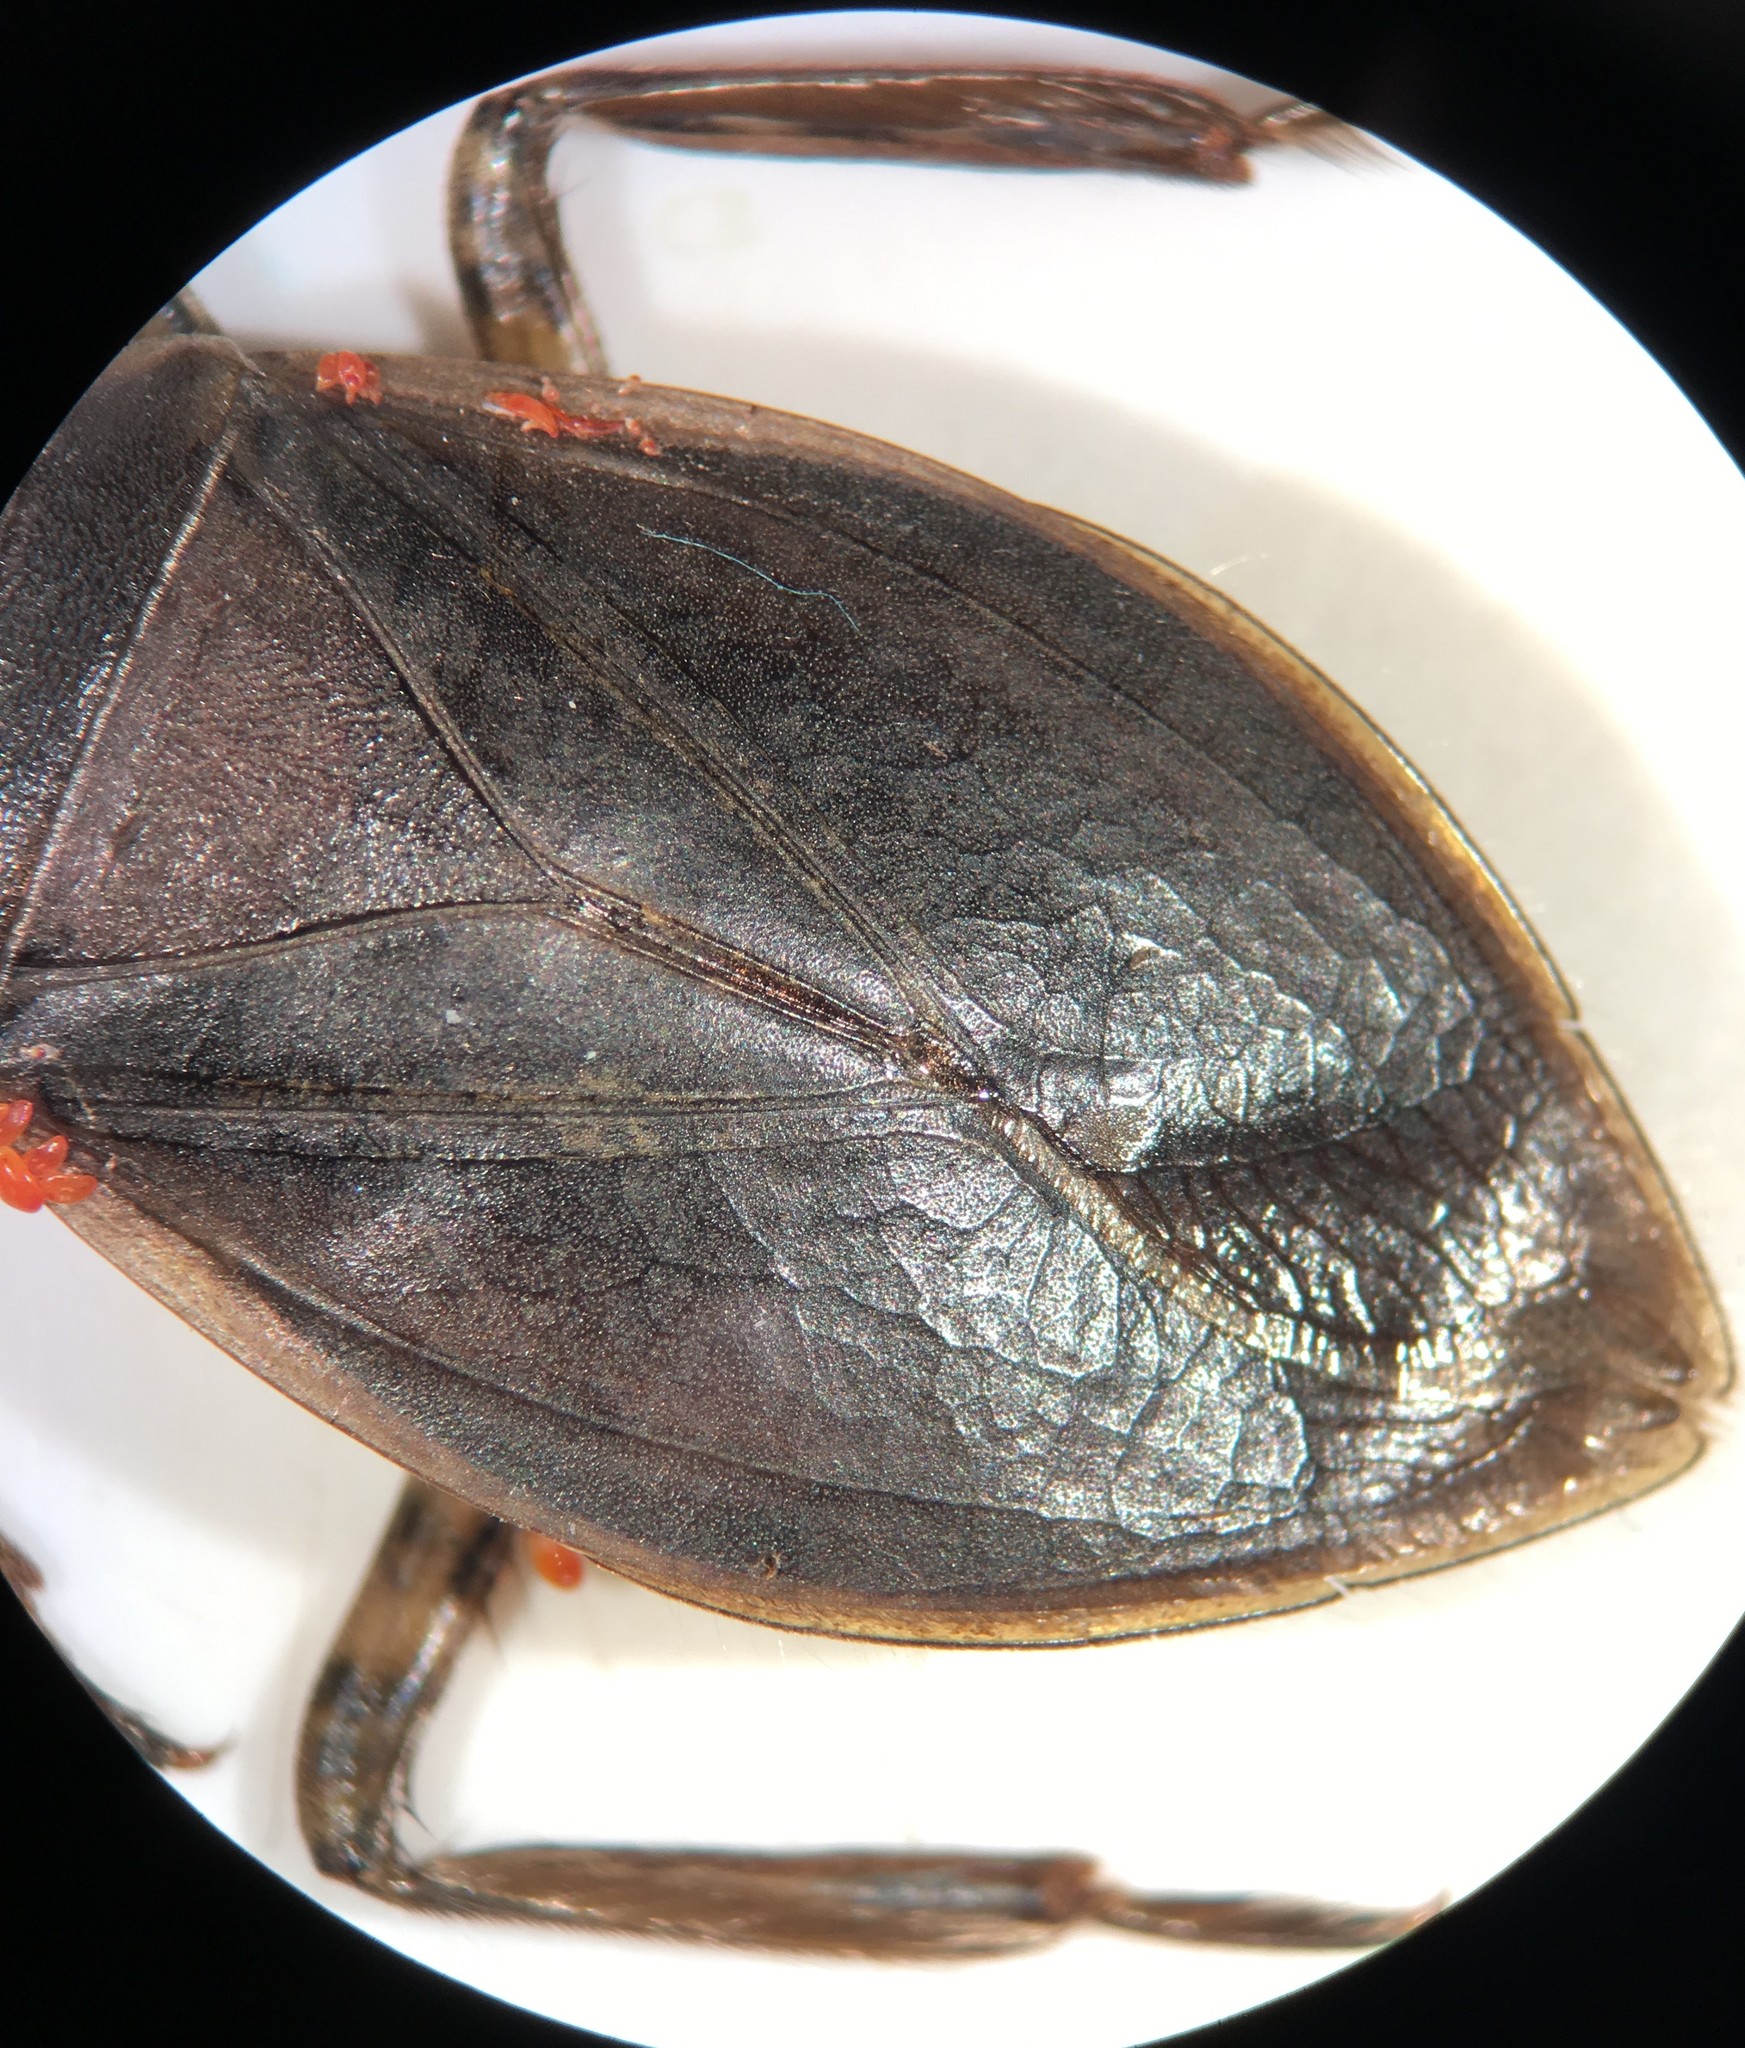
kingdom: Animalia
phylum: Arthropoda
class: Insecta
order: Hemiptera
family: Belostomatidae
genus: Belostoma
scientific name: Belostoma lutarium
